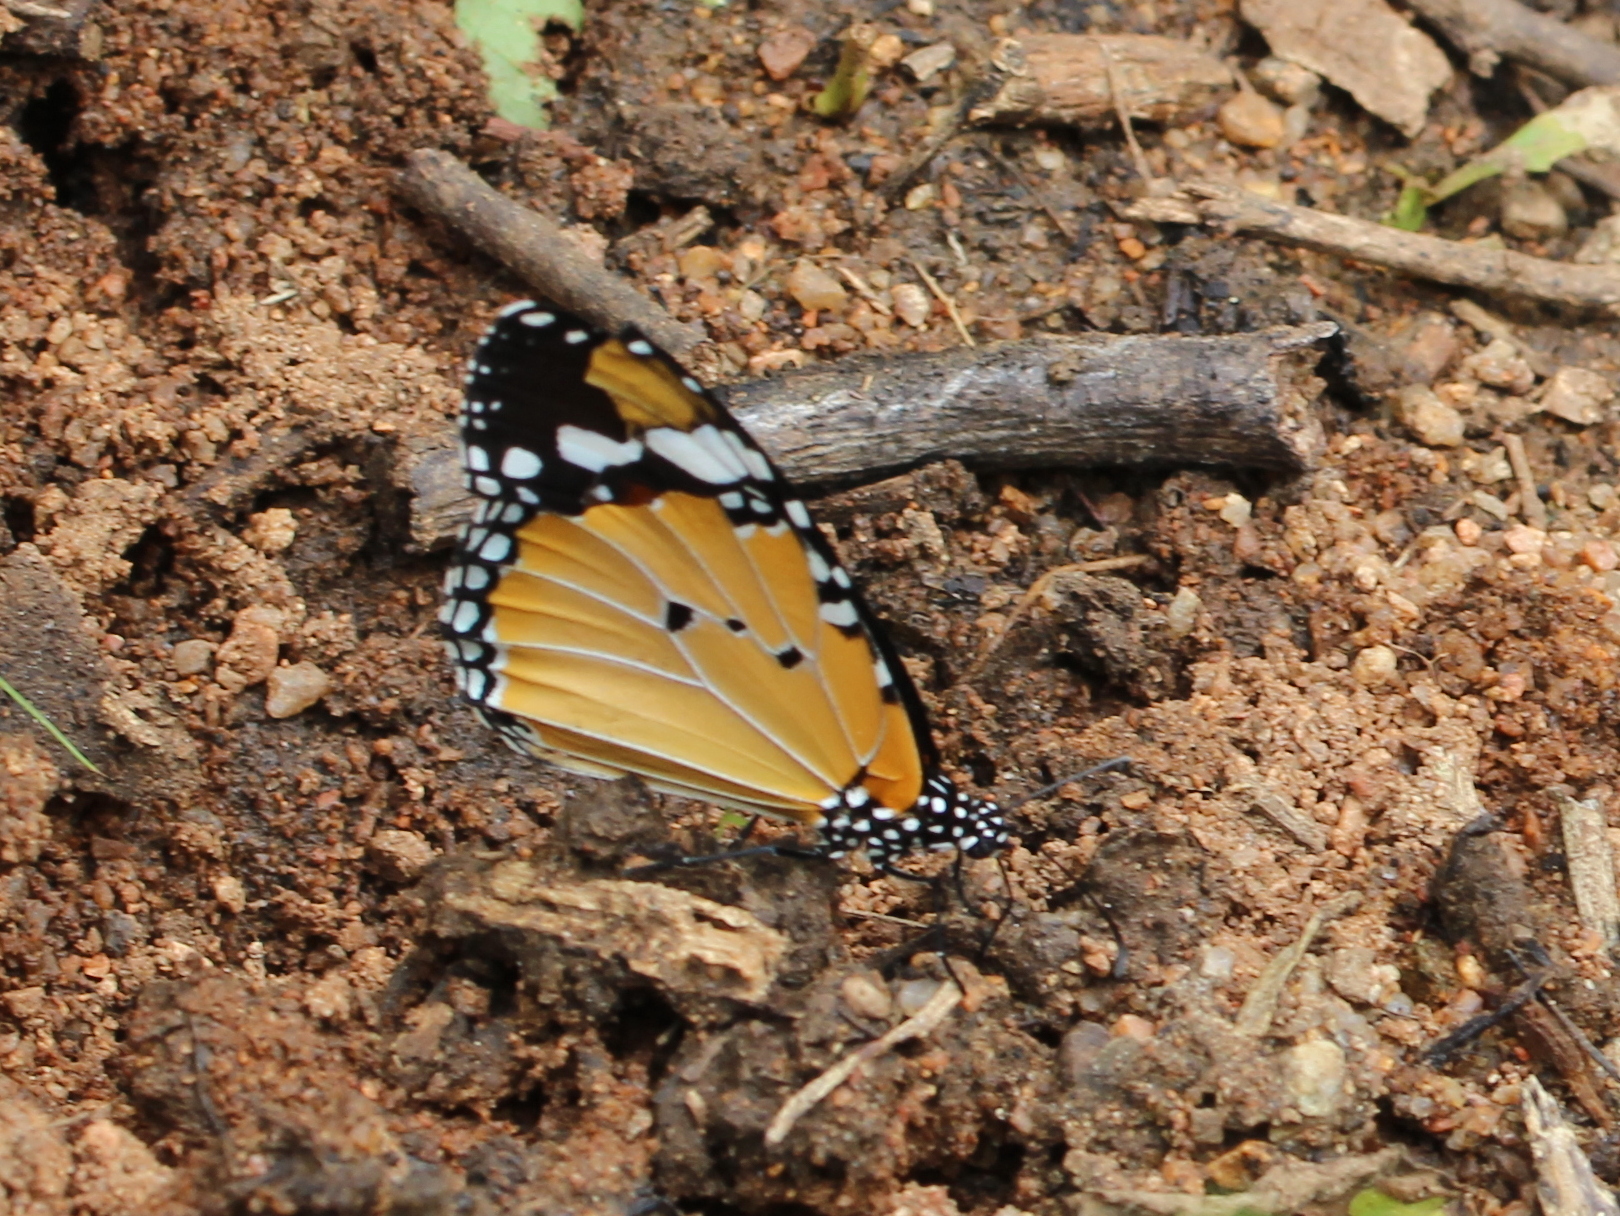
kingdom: Animalia
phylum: Arthropoda
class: Insecta
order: Lepidoptera
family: Nymphalidae
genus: Danaus
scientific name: Danaus chrysippus
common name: Plain tiger
